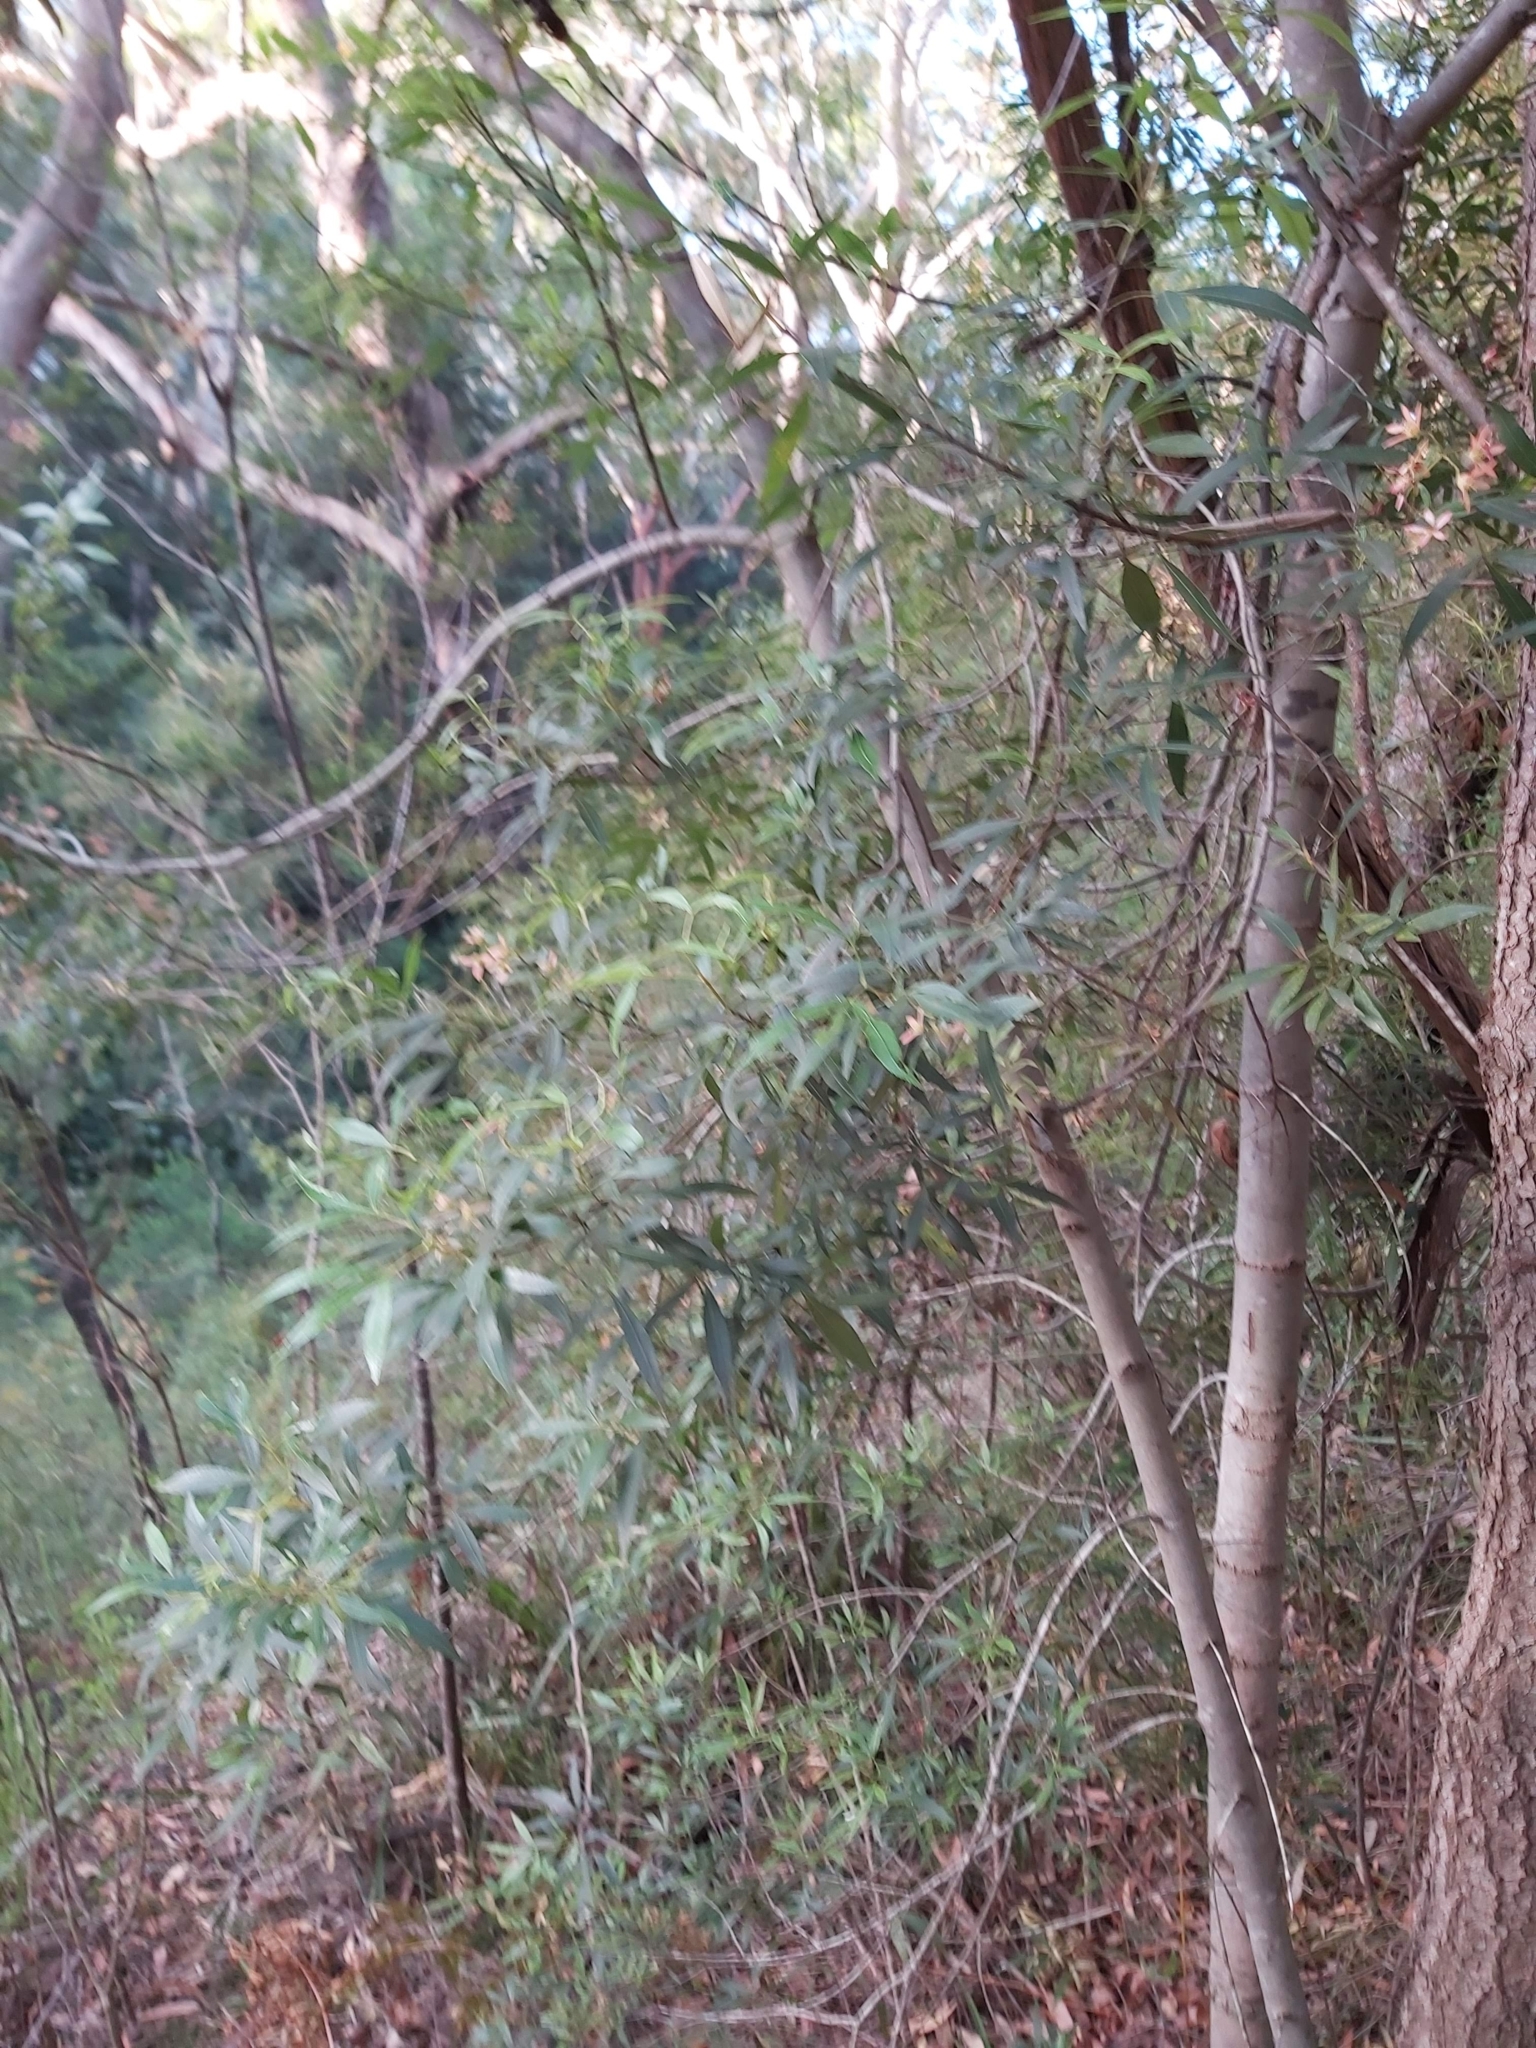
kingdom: Plantae
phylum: Tracheophyta
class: Magnoliopsida
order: Oxalidales
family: Cunoniaceae
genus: Ceratopetalum
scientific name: Ceratopetalum gummiferum
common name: Christmasbush
